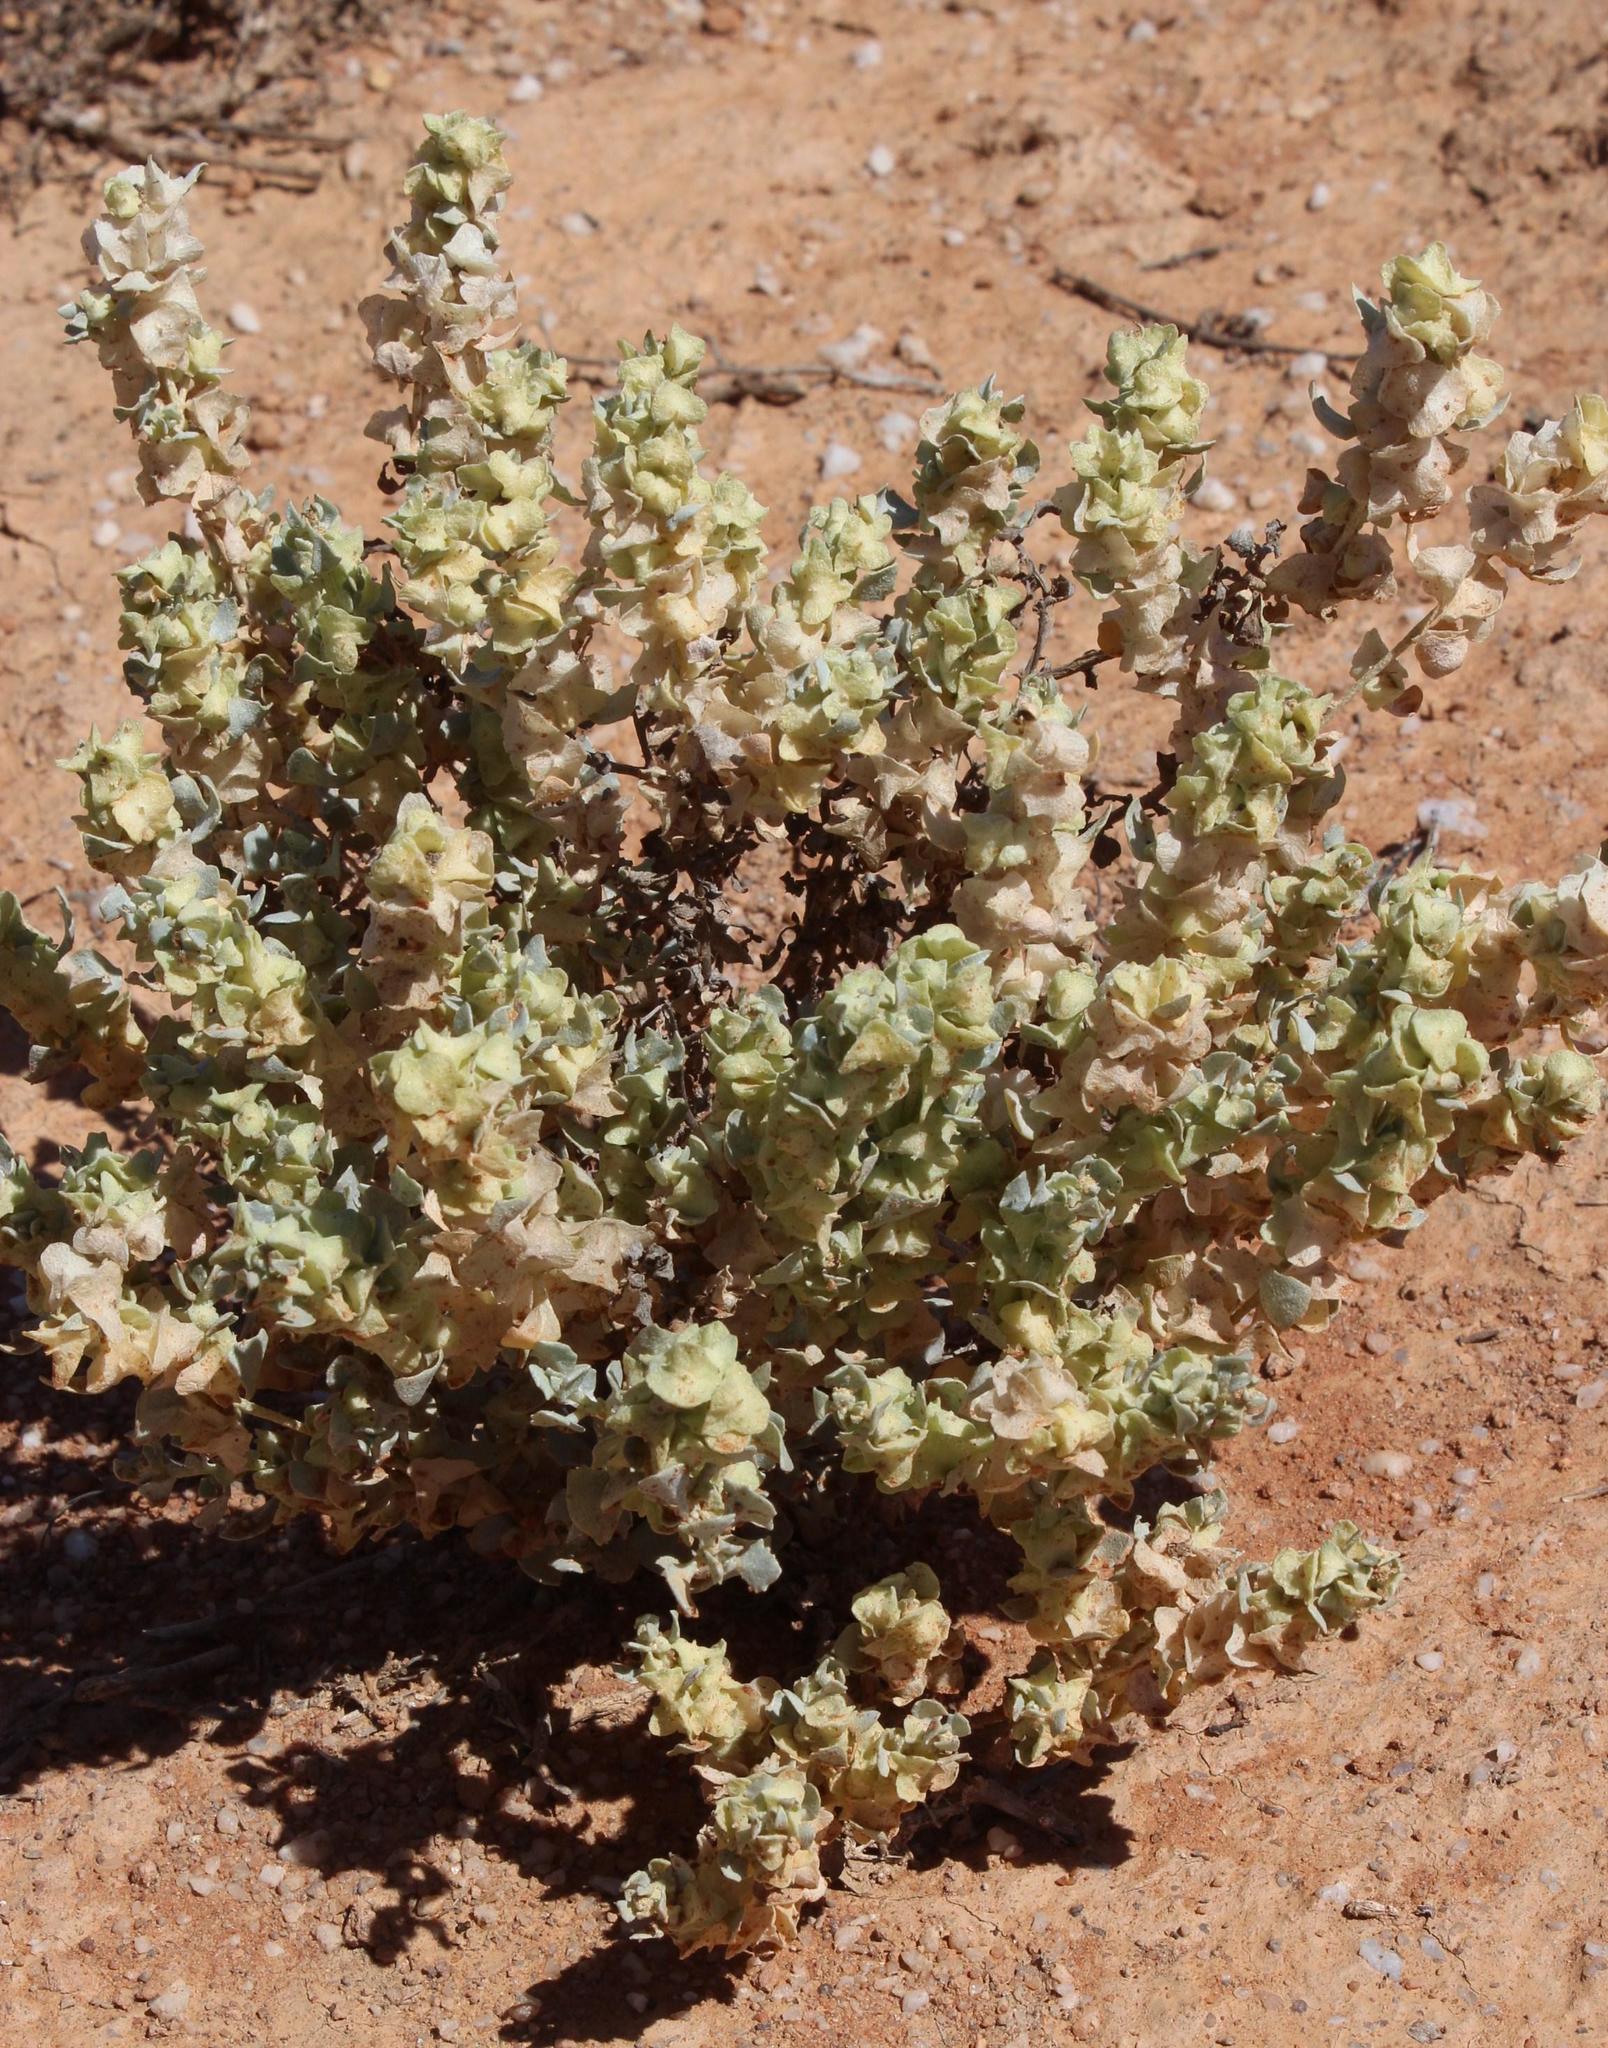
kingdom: Plantae
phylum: Tracheophyta
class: Magnoliopsida
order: Caryophyllales
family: Amaranthaceae
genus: Atriplex
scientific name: Atriplex lindleyi
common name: Lindley's saltbush
